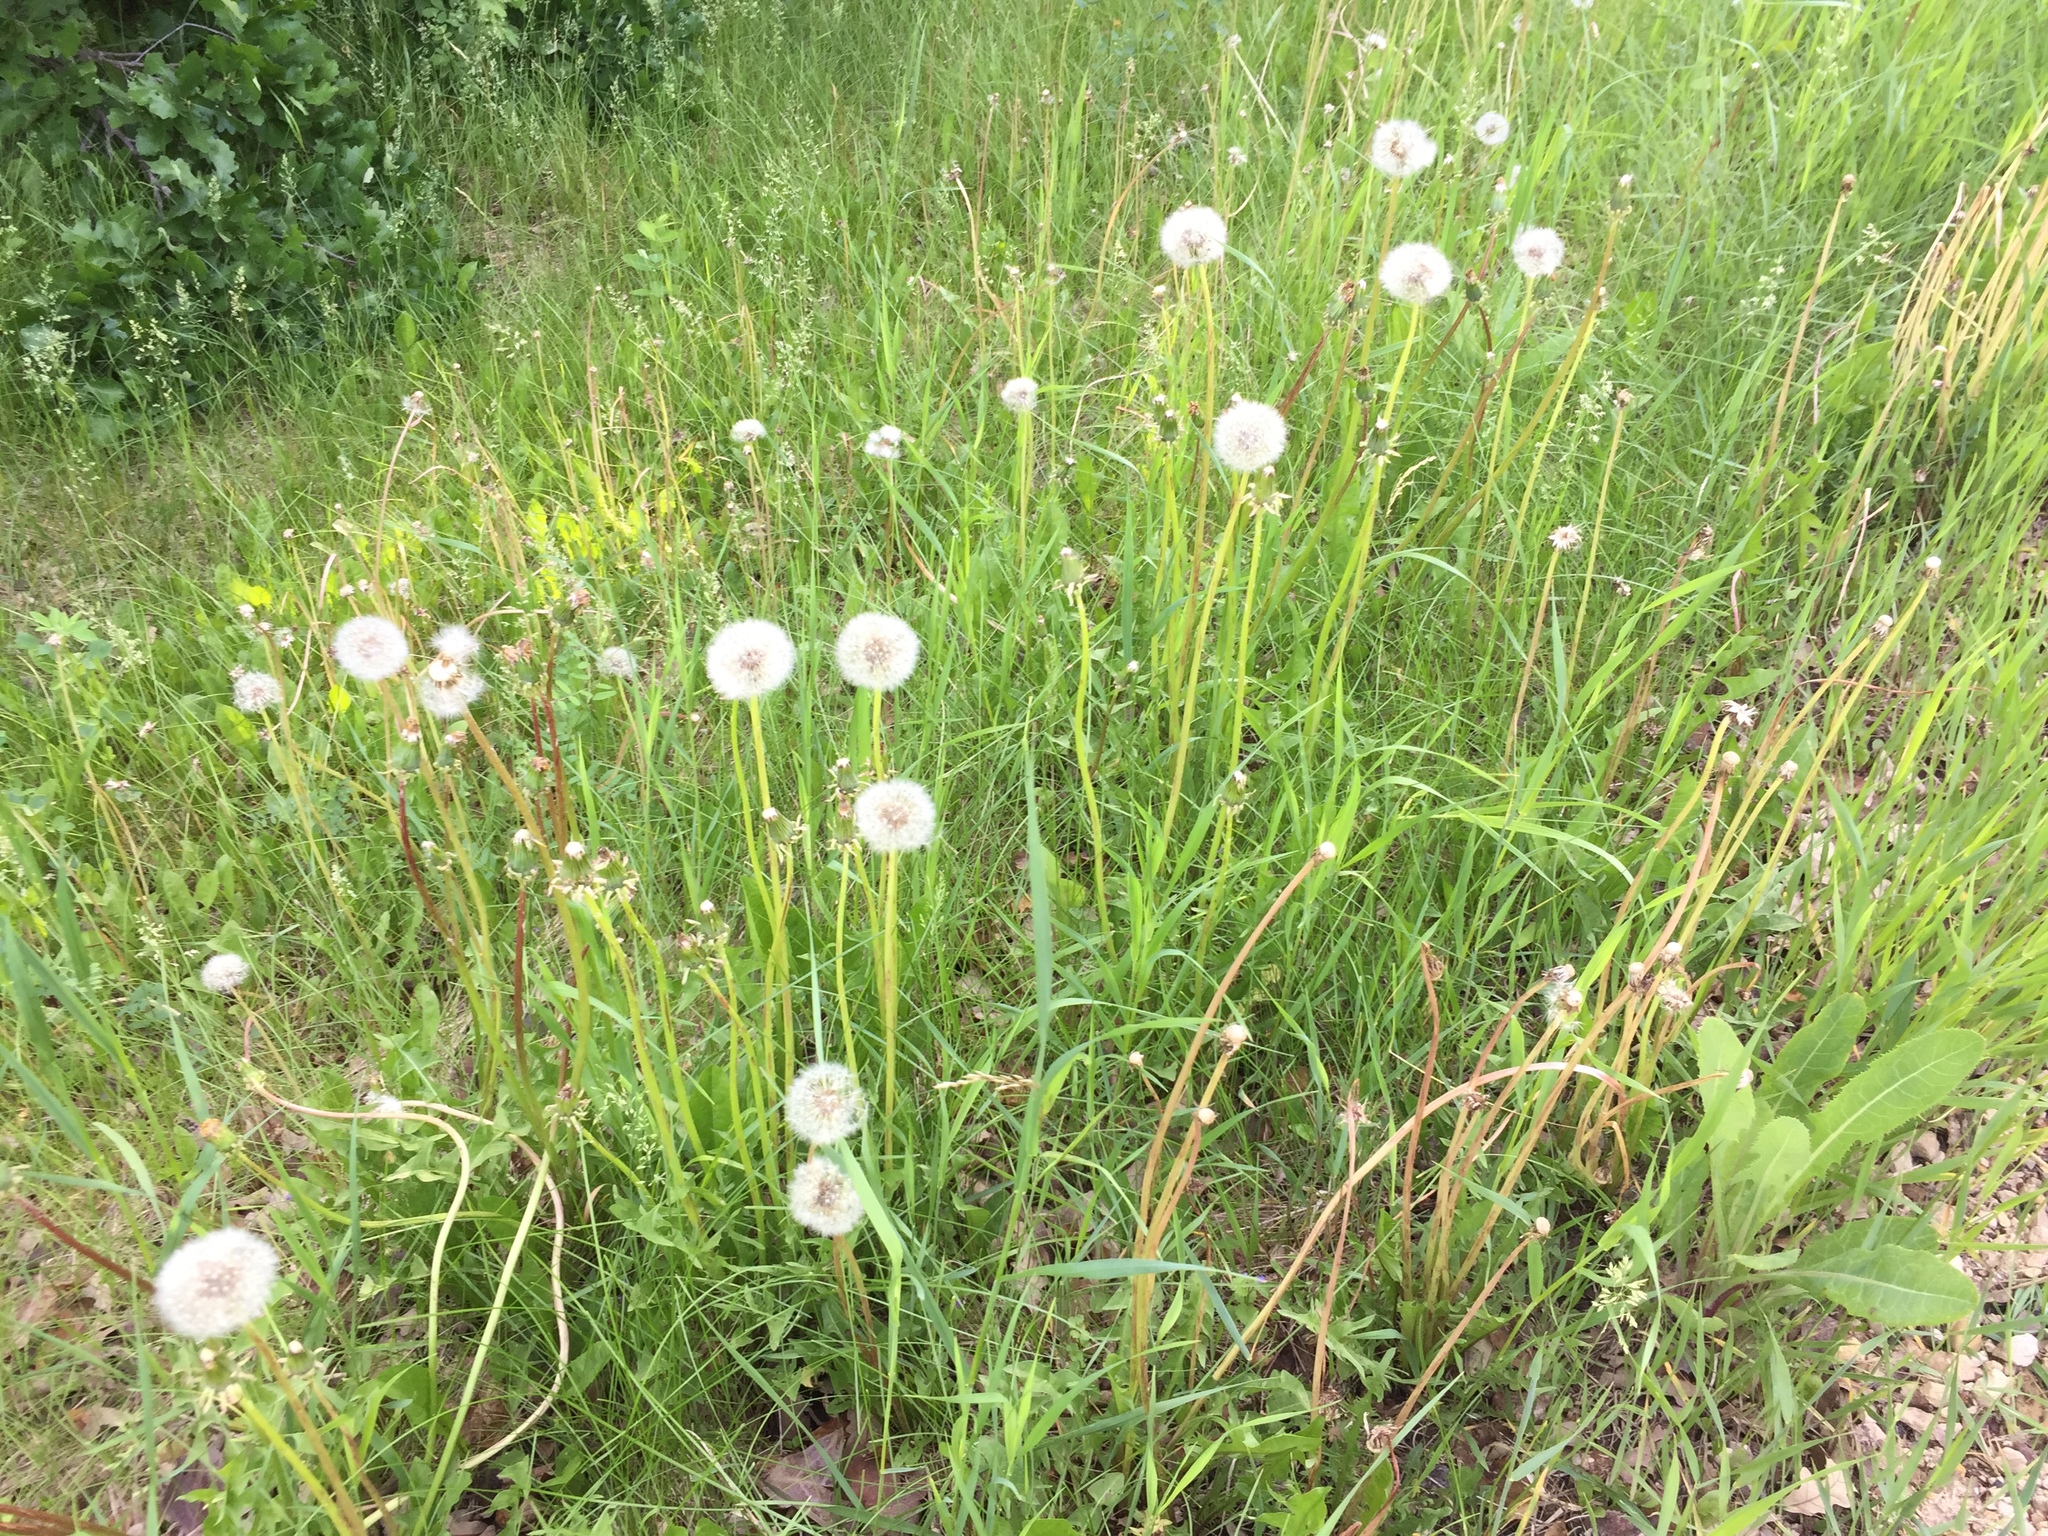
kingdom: Plantae
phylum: Tracheophyta
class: Magnoliopsida
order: Asterales
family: Asteraceae
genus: Taraxacum
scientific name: Taraxacum officinale
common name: Common dandelion
